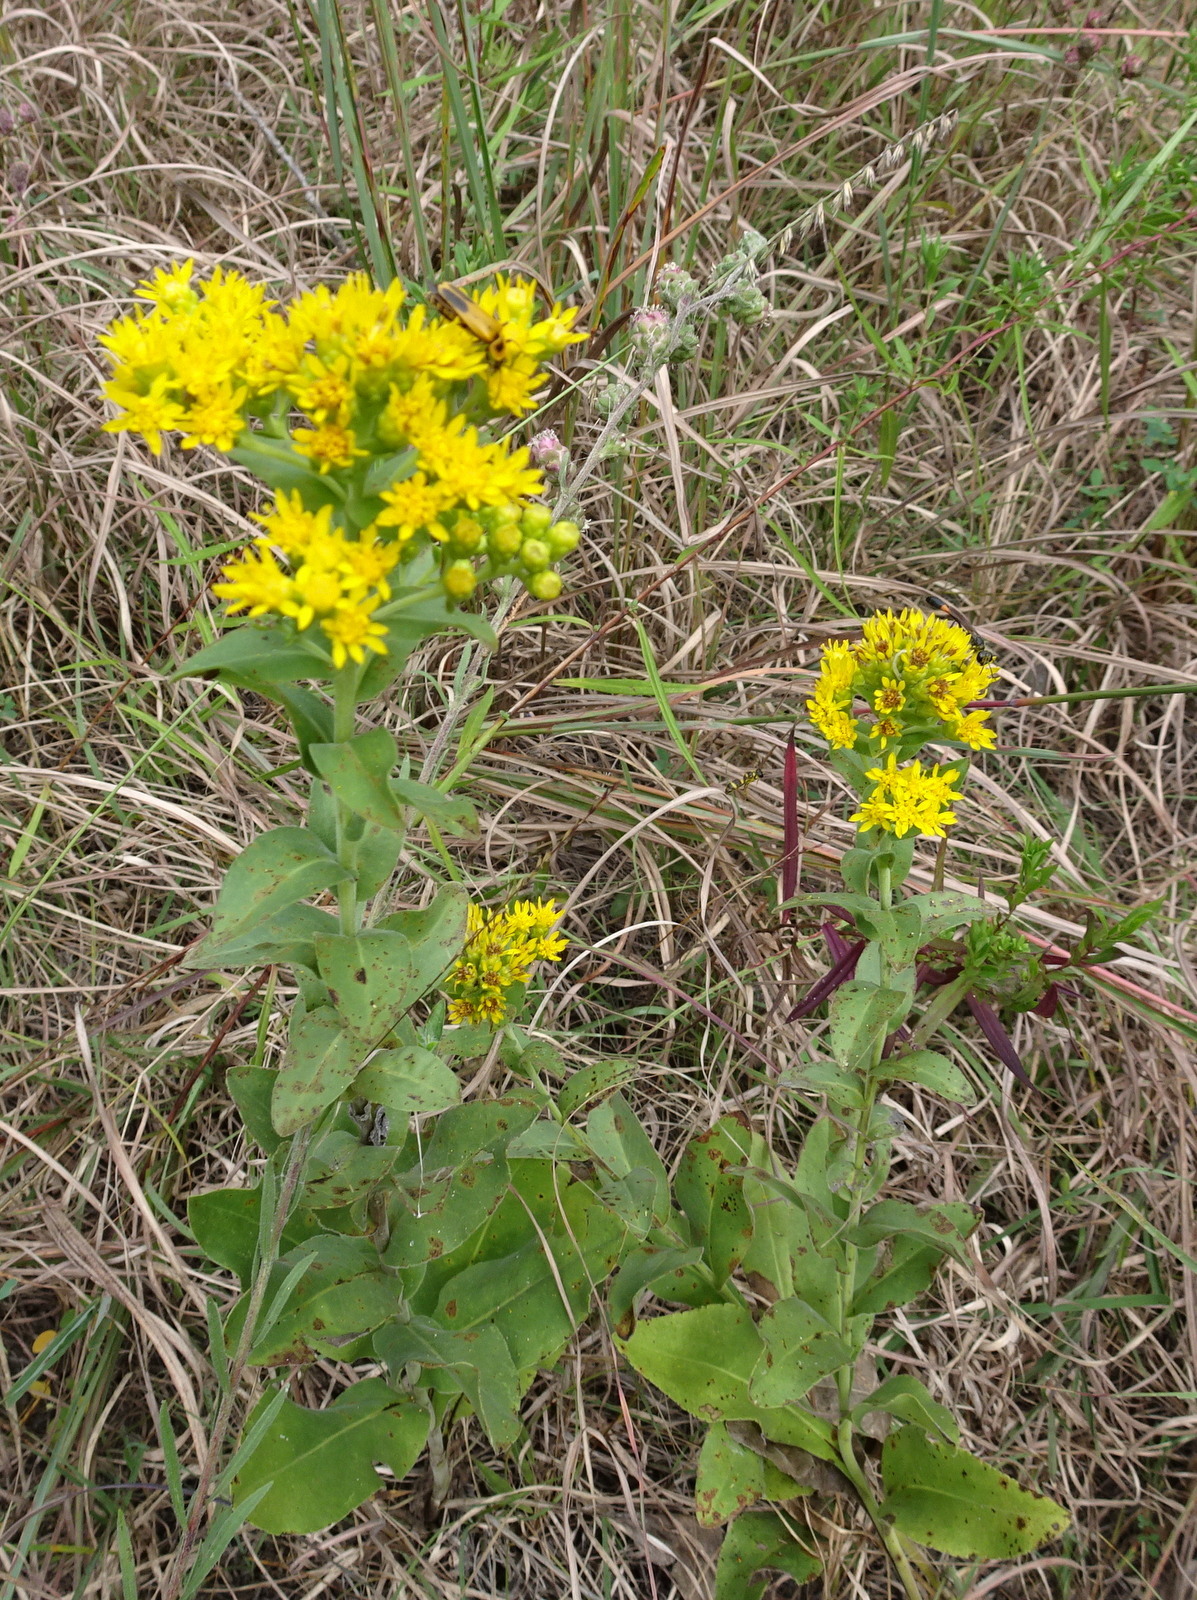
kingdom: Plantae
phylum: Tracheophyta
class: Magnoliopsida
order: Asterales
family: Asteraceae
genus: Solidago
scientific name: Solidago rigida
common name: Rigid goldenrod
